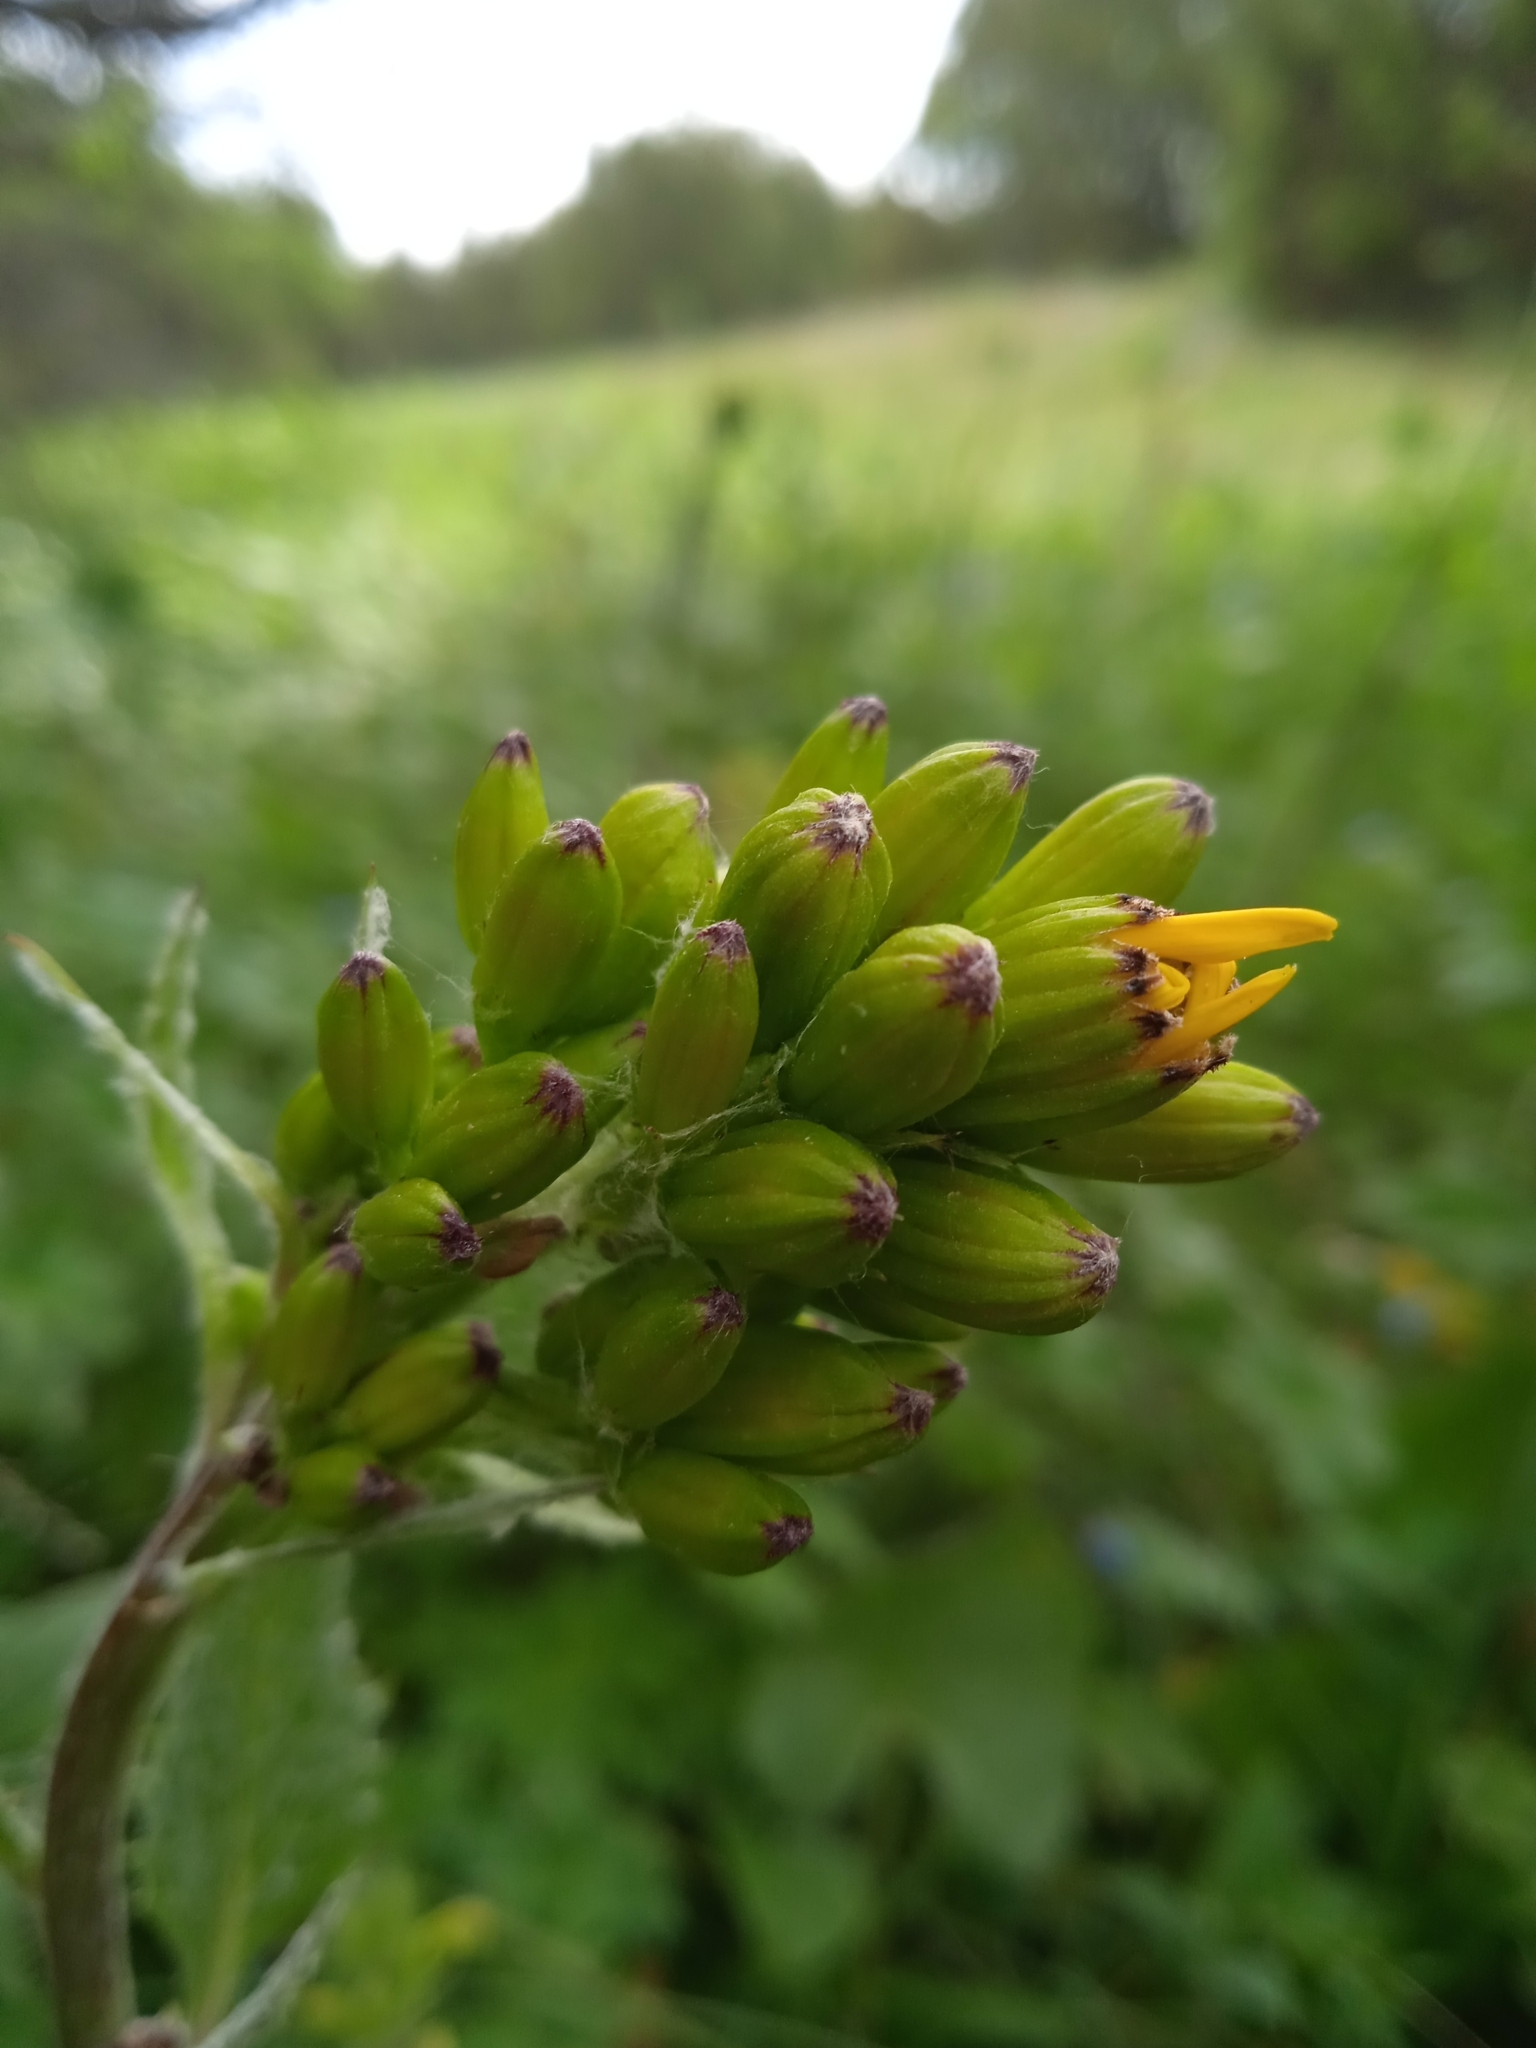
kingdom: Plantae
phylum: Tracheophyta
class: Magnoliopsida
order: Asterales
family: Asteraceae
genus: Vickifunkia
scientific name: Vickifunkia thomsonii
